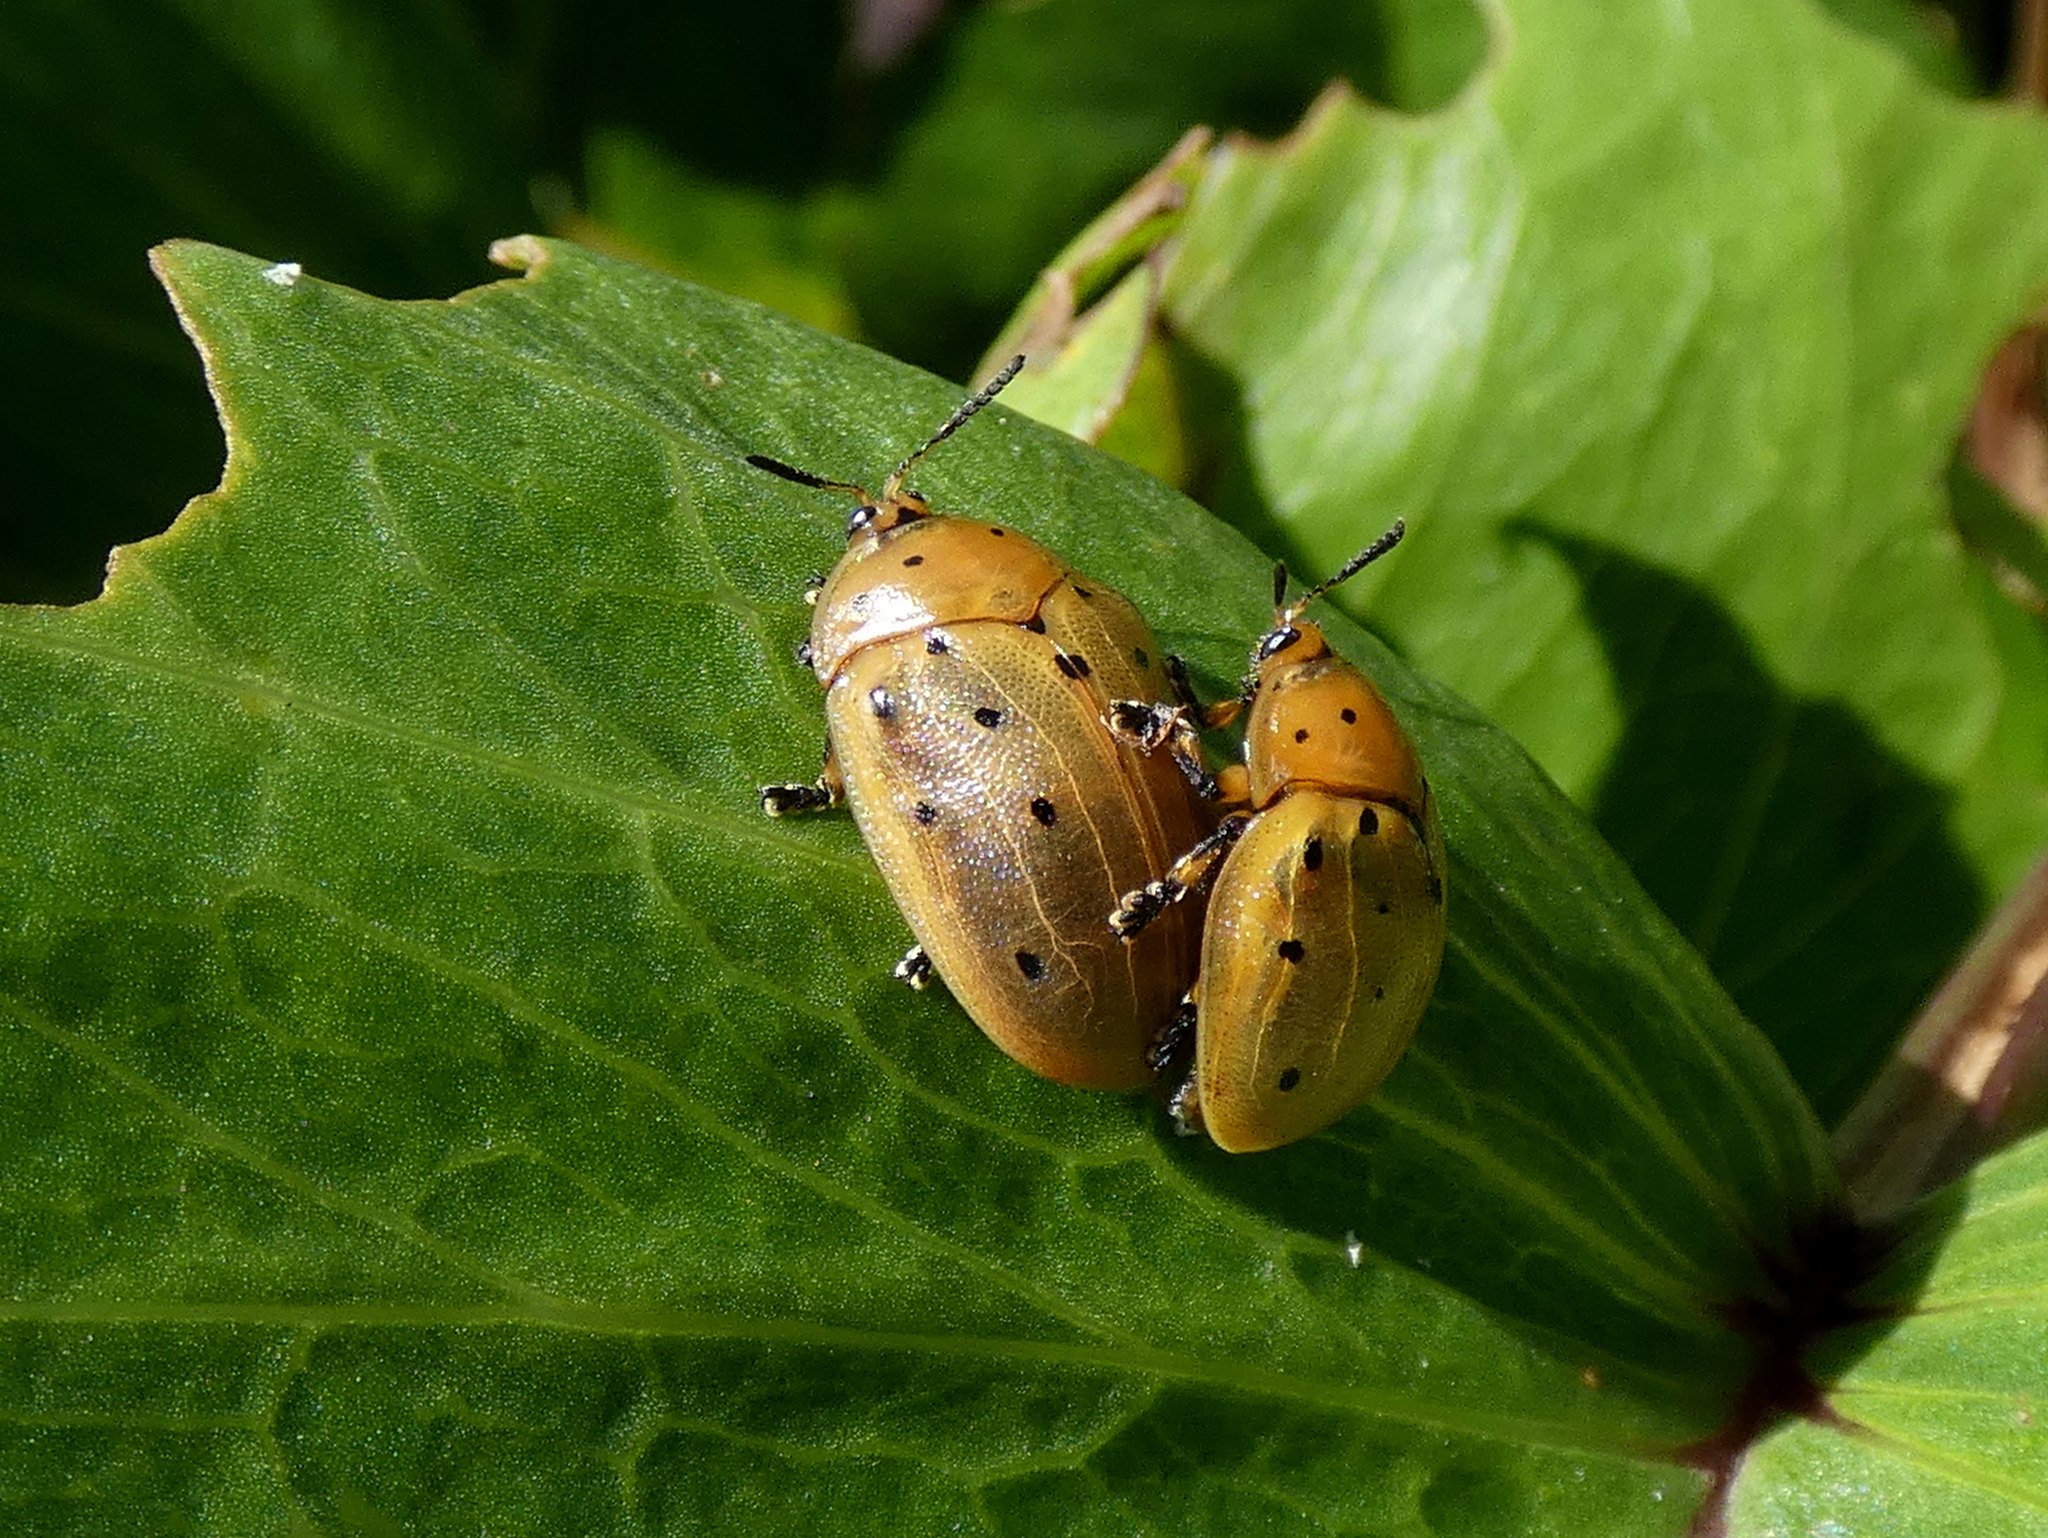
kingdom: Animalia
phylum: Arthropoda
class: Insecta
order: Coleoptera
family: Chrysomelidae
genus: Chelymorpha
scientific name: Chelymorpha cassidea
